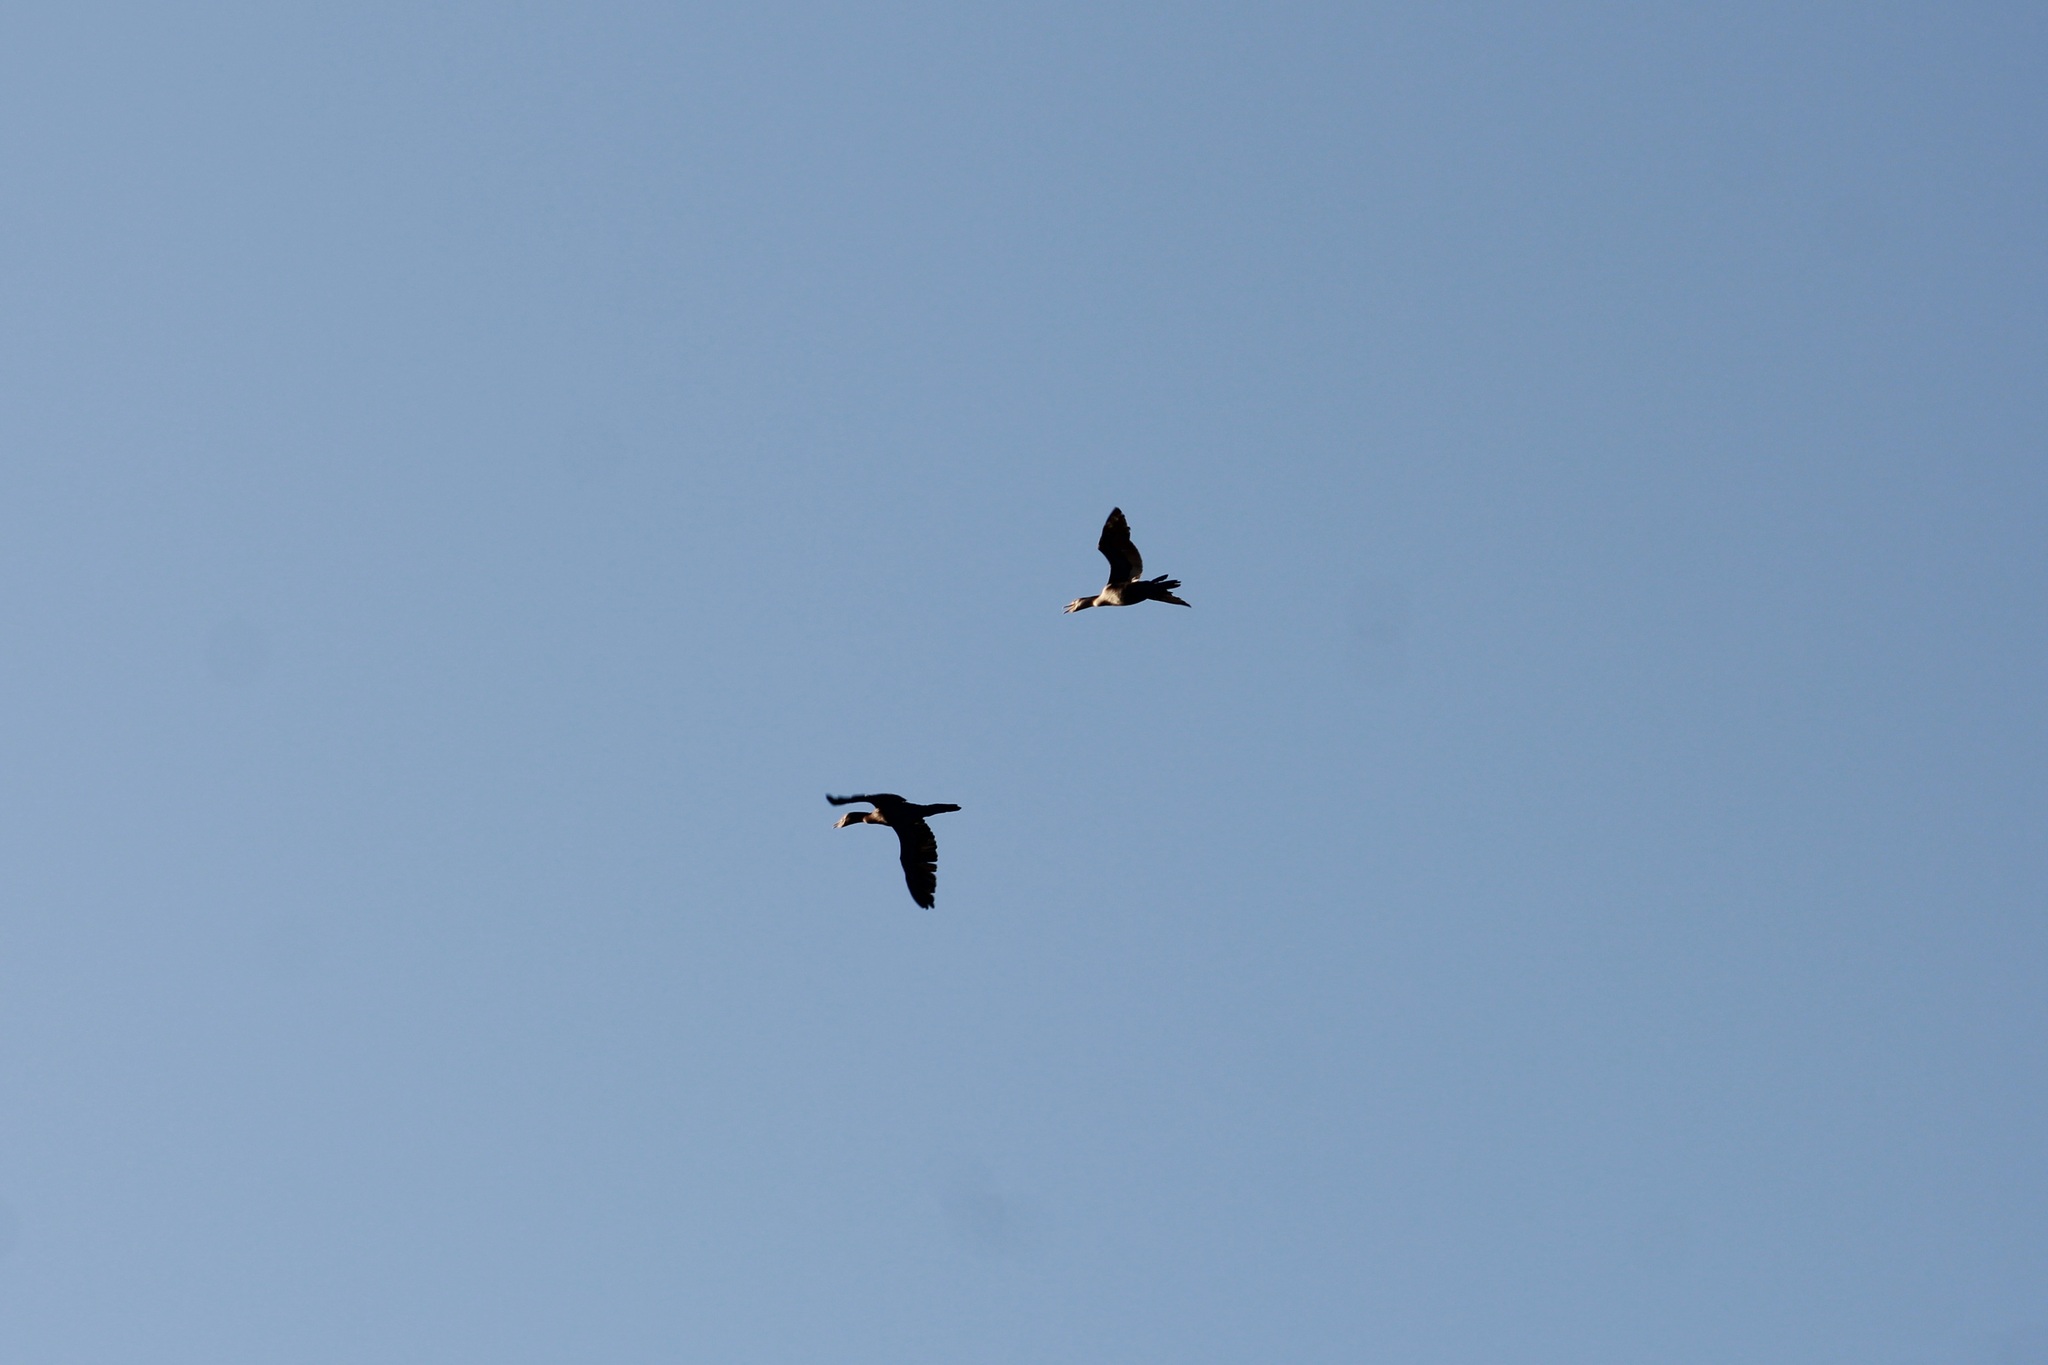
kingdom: Animalia
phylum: Chordata
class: Aves
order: Suliformes
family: Phalacrocoracidae
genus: Phalacrocorax
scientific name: Phalacrocorax auritus
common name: Double-crested cormorant
